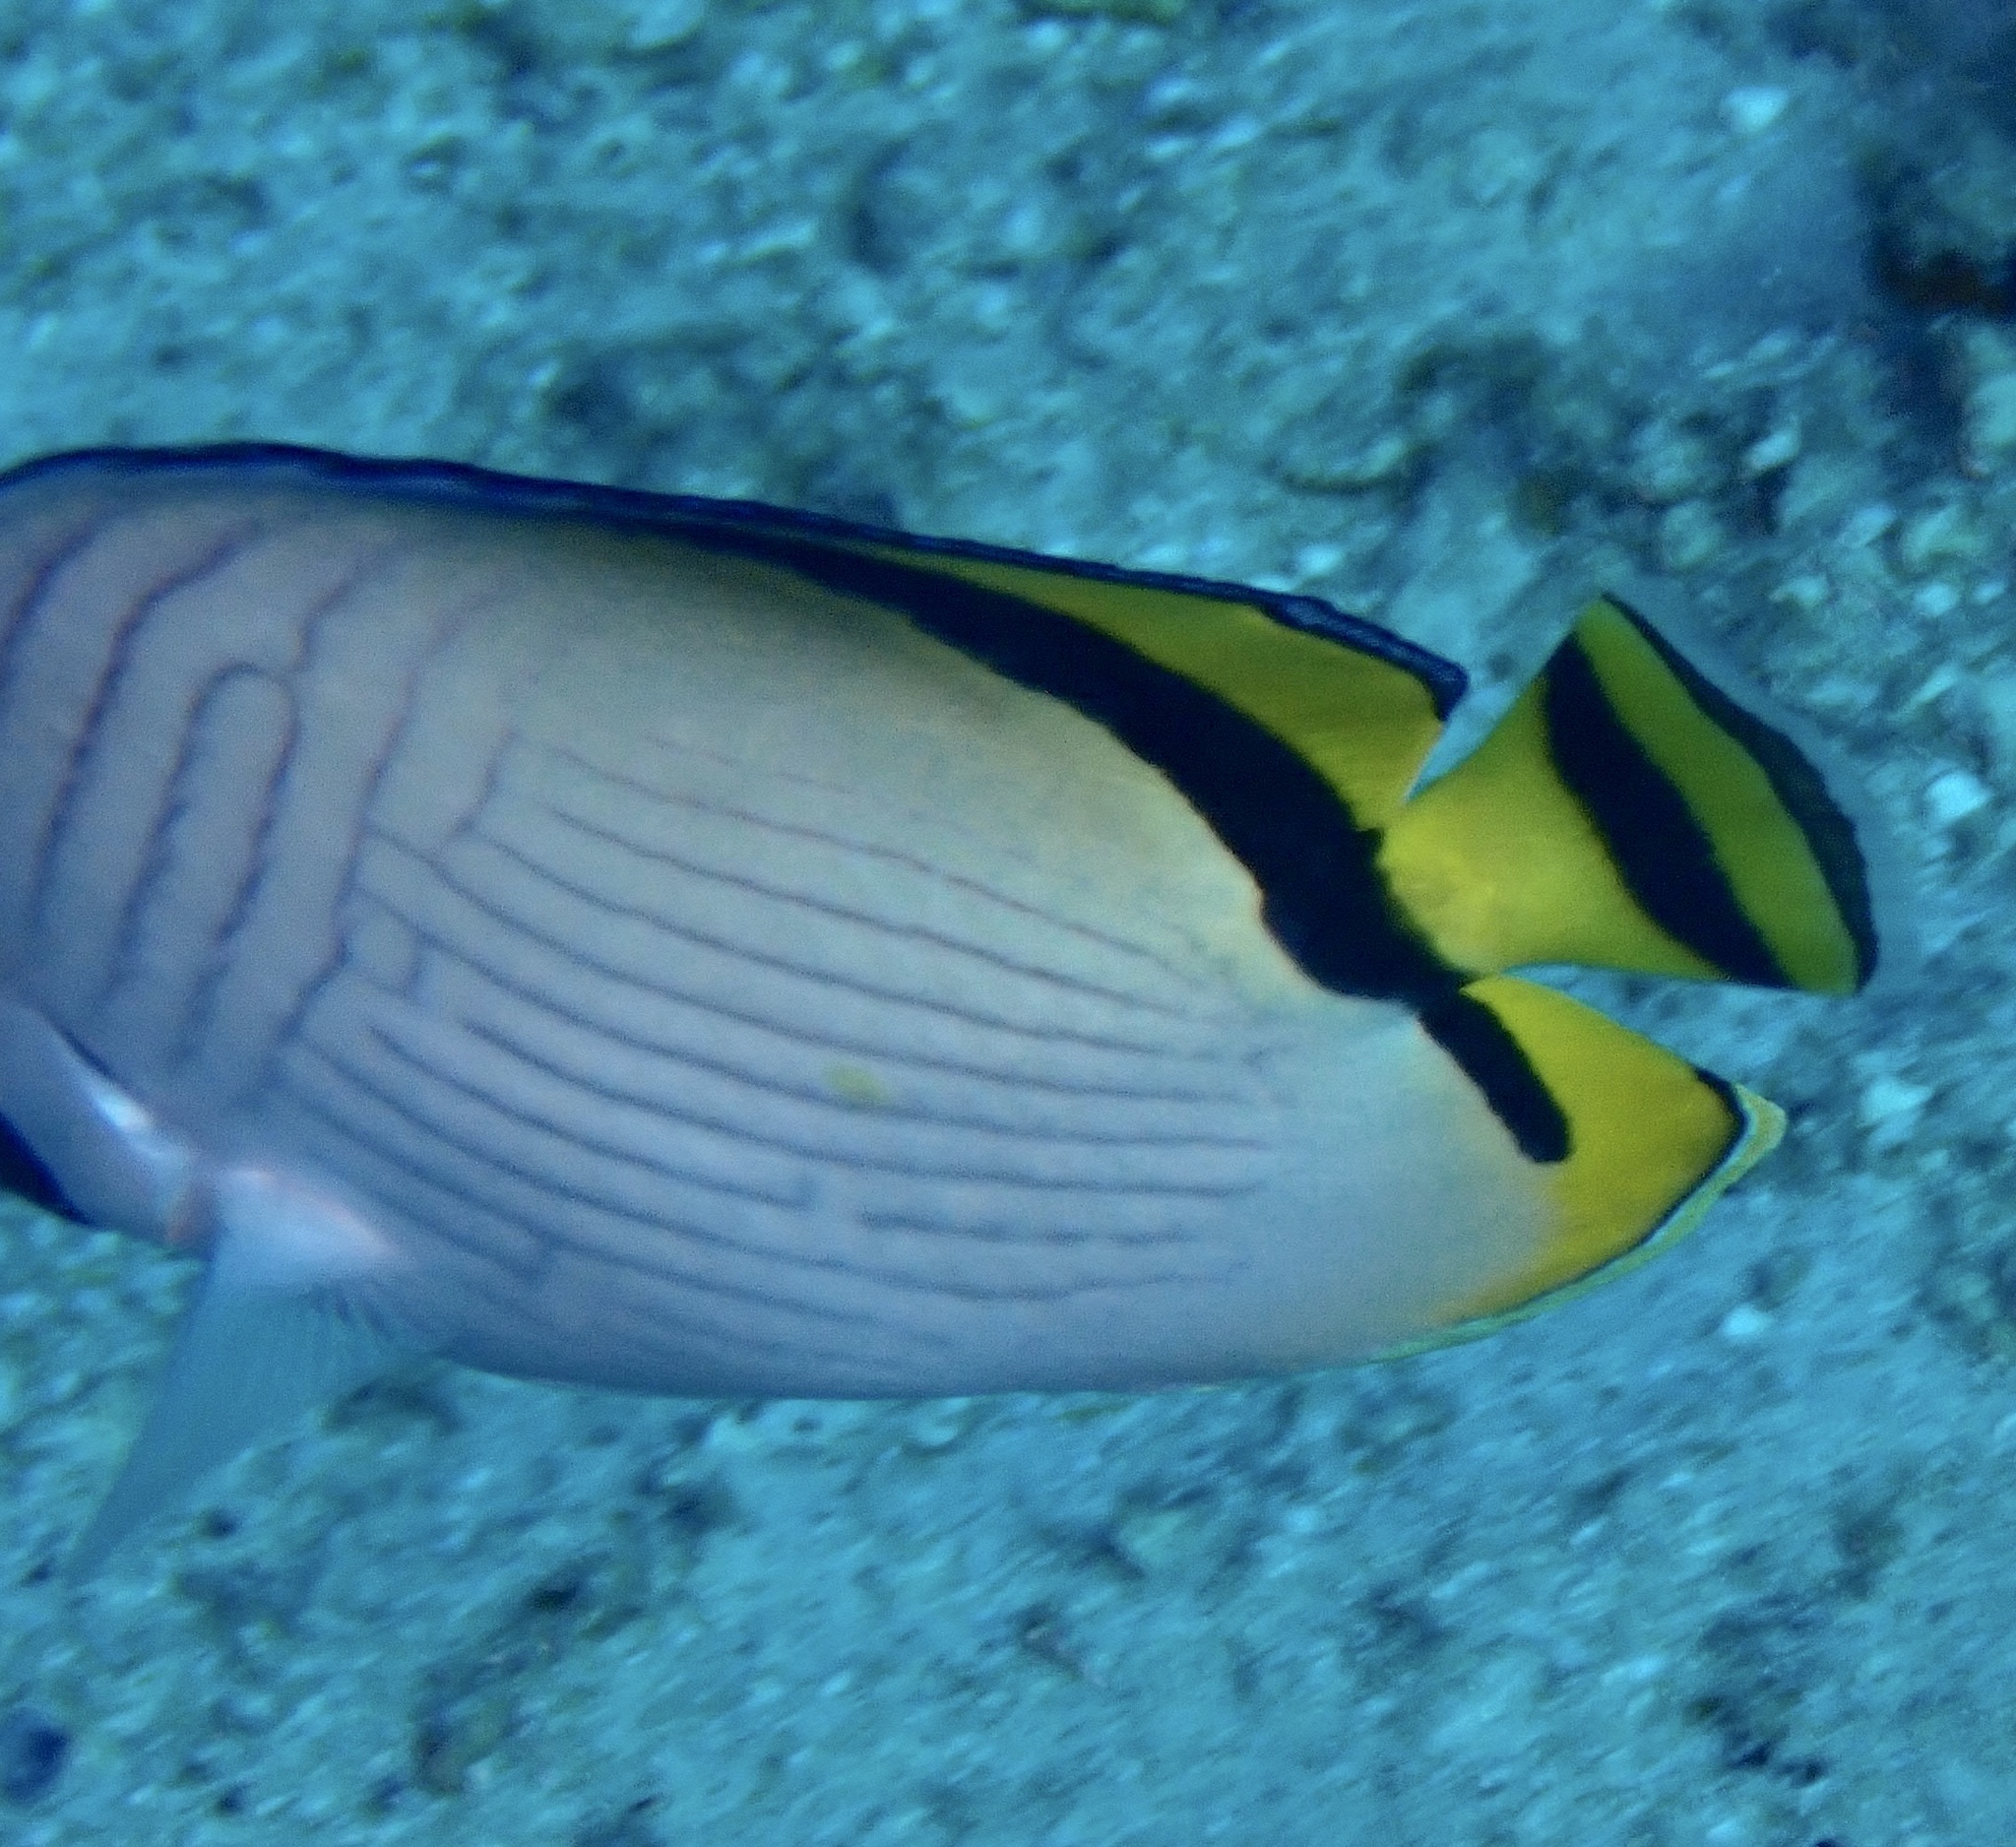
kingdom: Animalia
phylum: Chordata
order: Perciformes
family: Chaetodontidae
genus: Chaetodon
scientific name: Chaetodon vagabundus
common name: Vagabond butterflyfish
